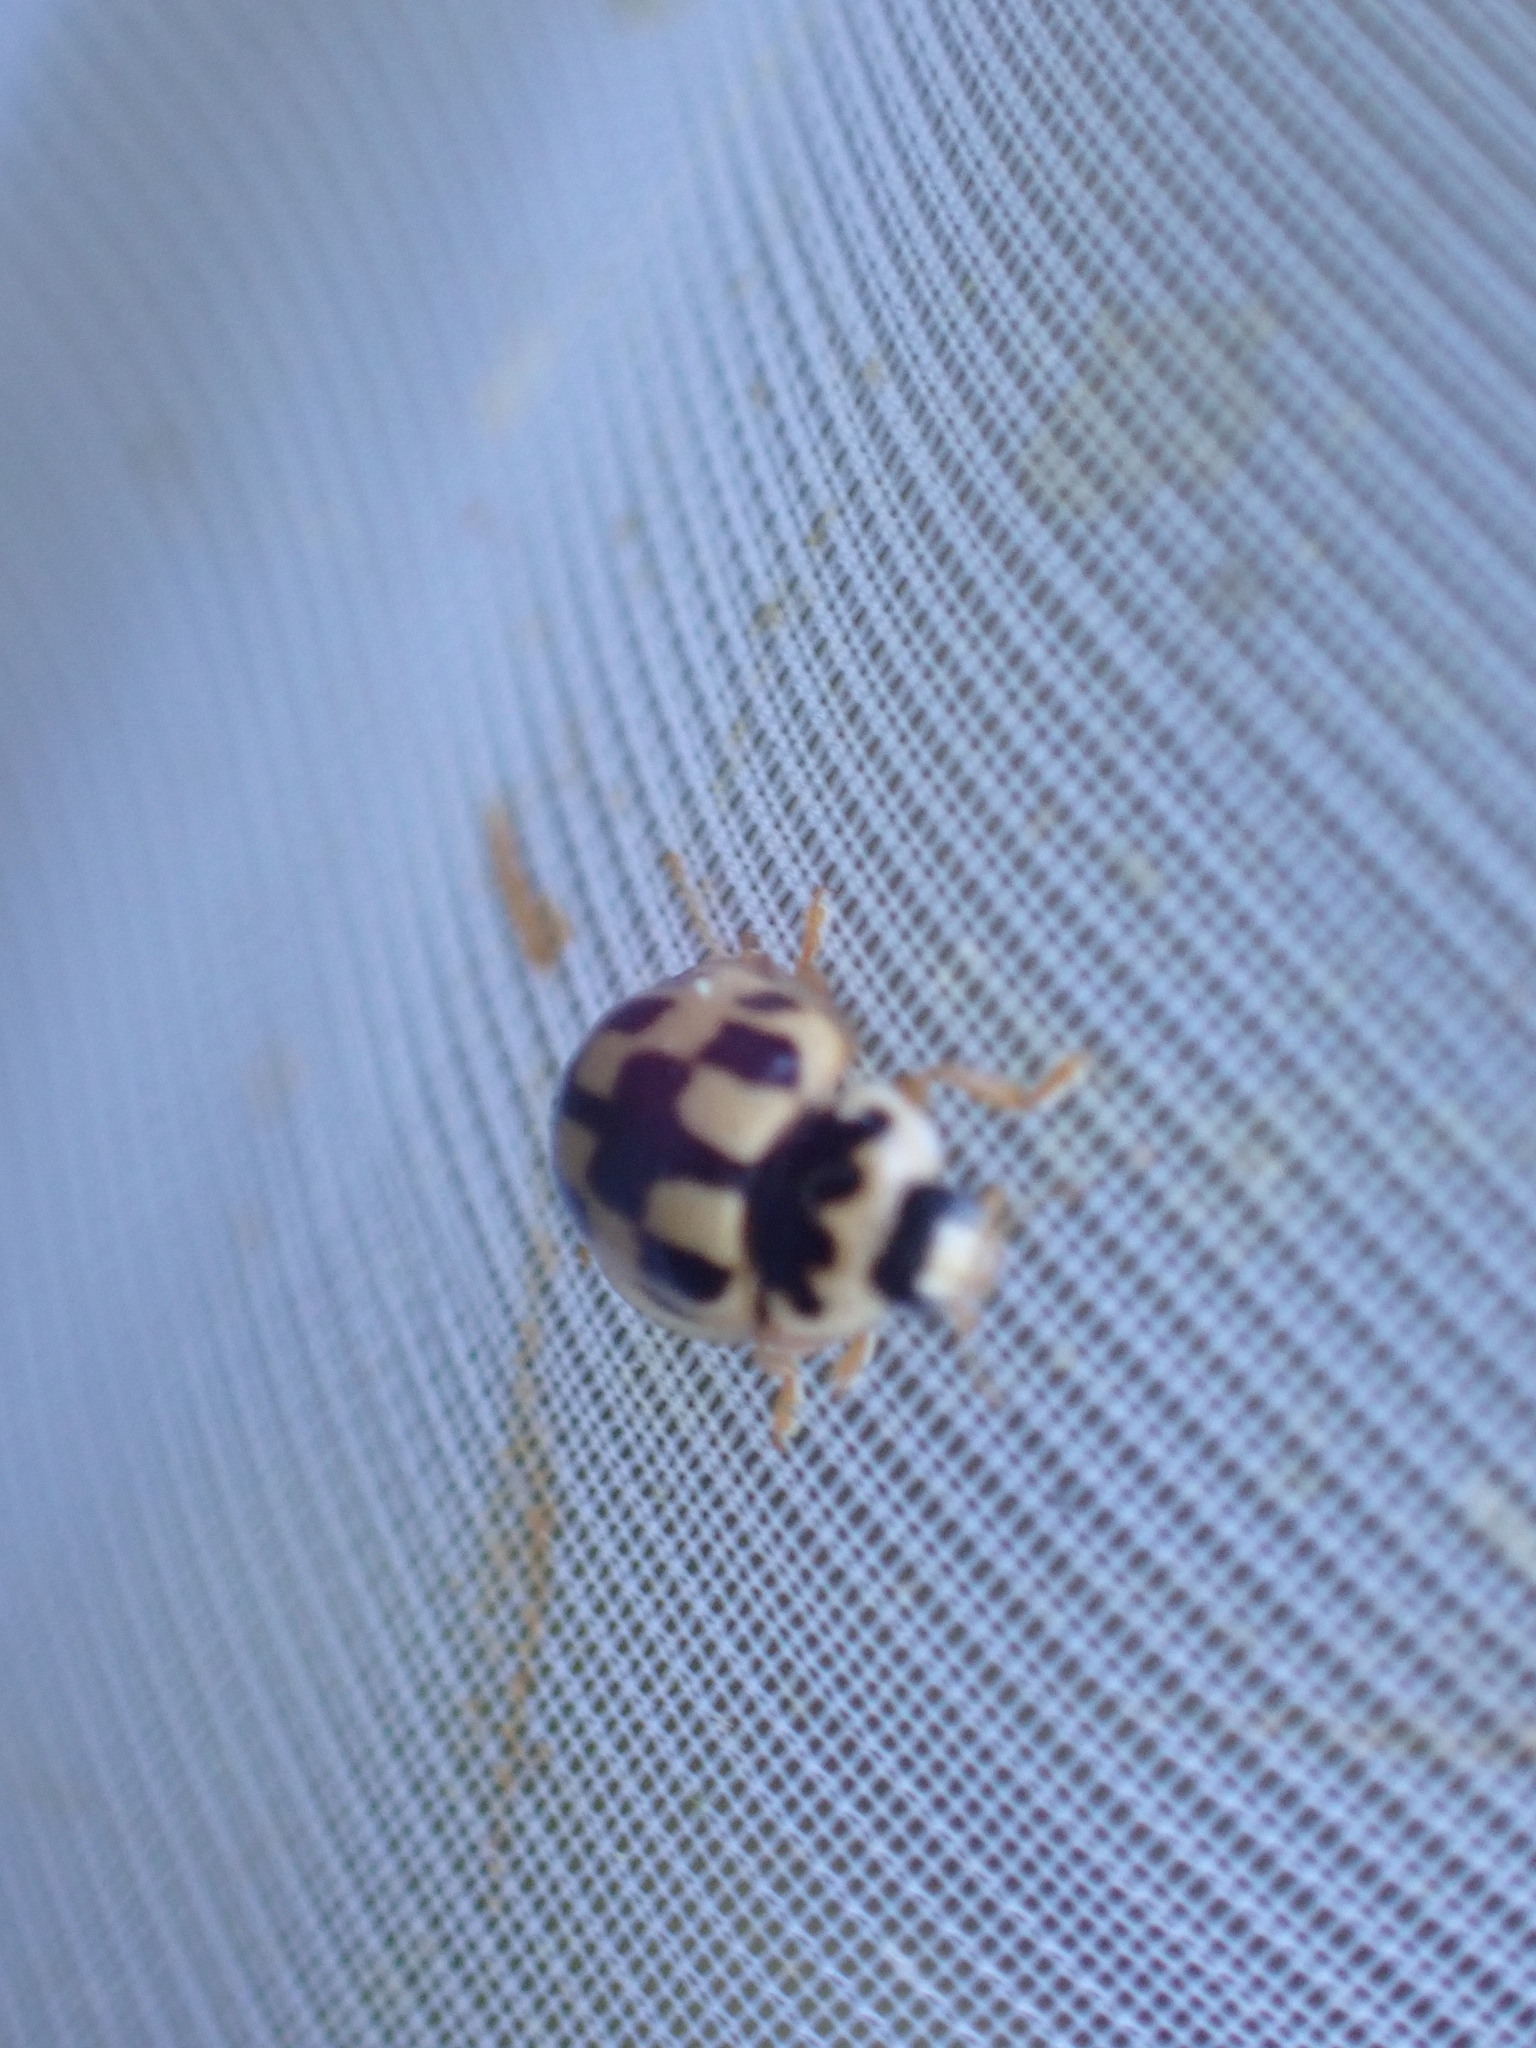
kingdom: Animalia
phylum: Arthropoda
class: Insecta
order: Coleoptera
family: Coccinellidae
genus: Propylaea
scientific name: Propylaea quatuordecimpunctata
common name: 14-spotted ladybird beetle
